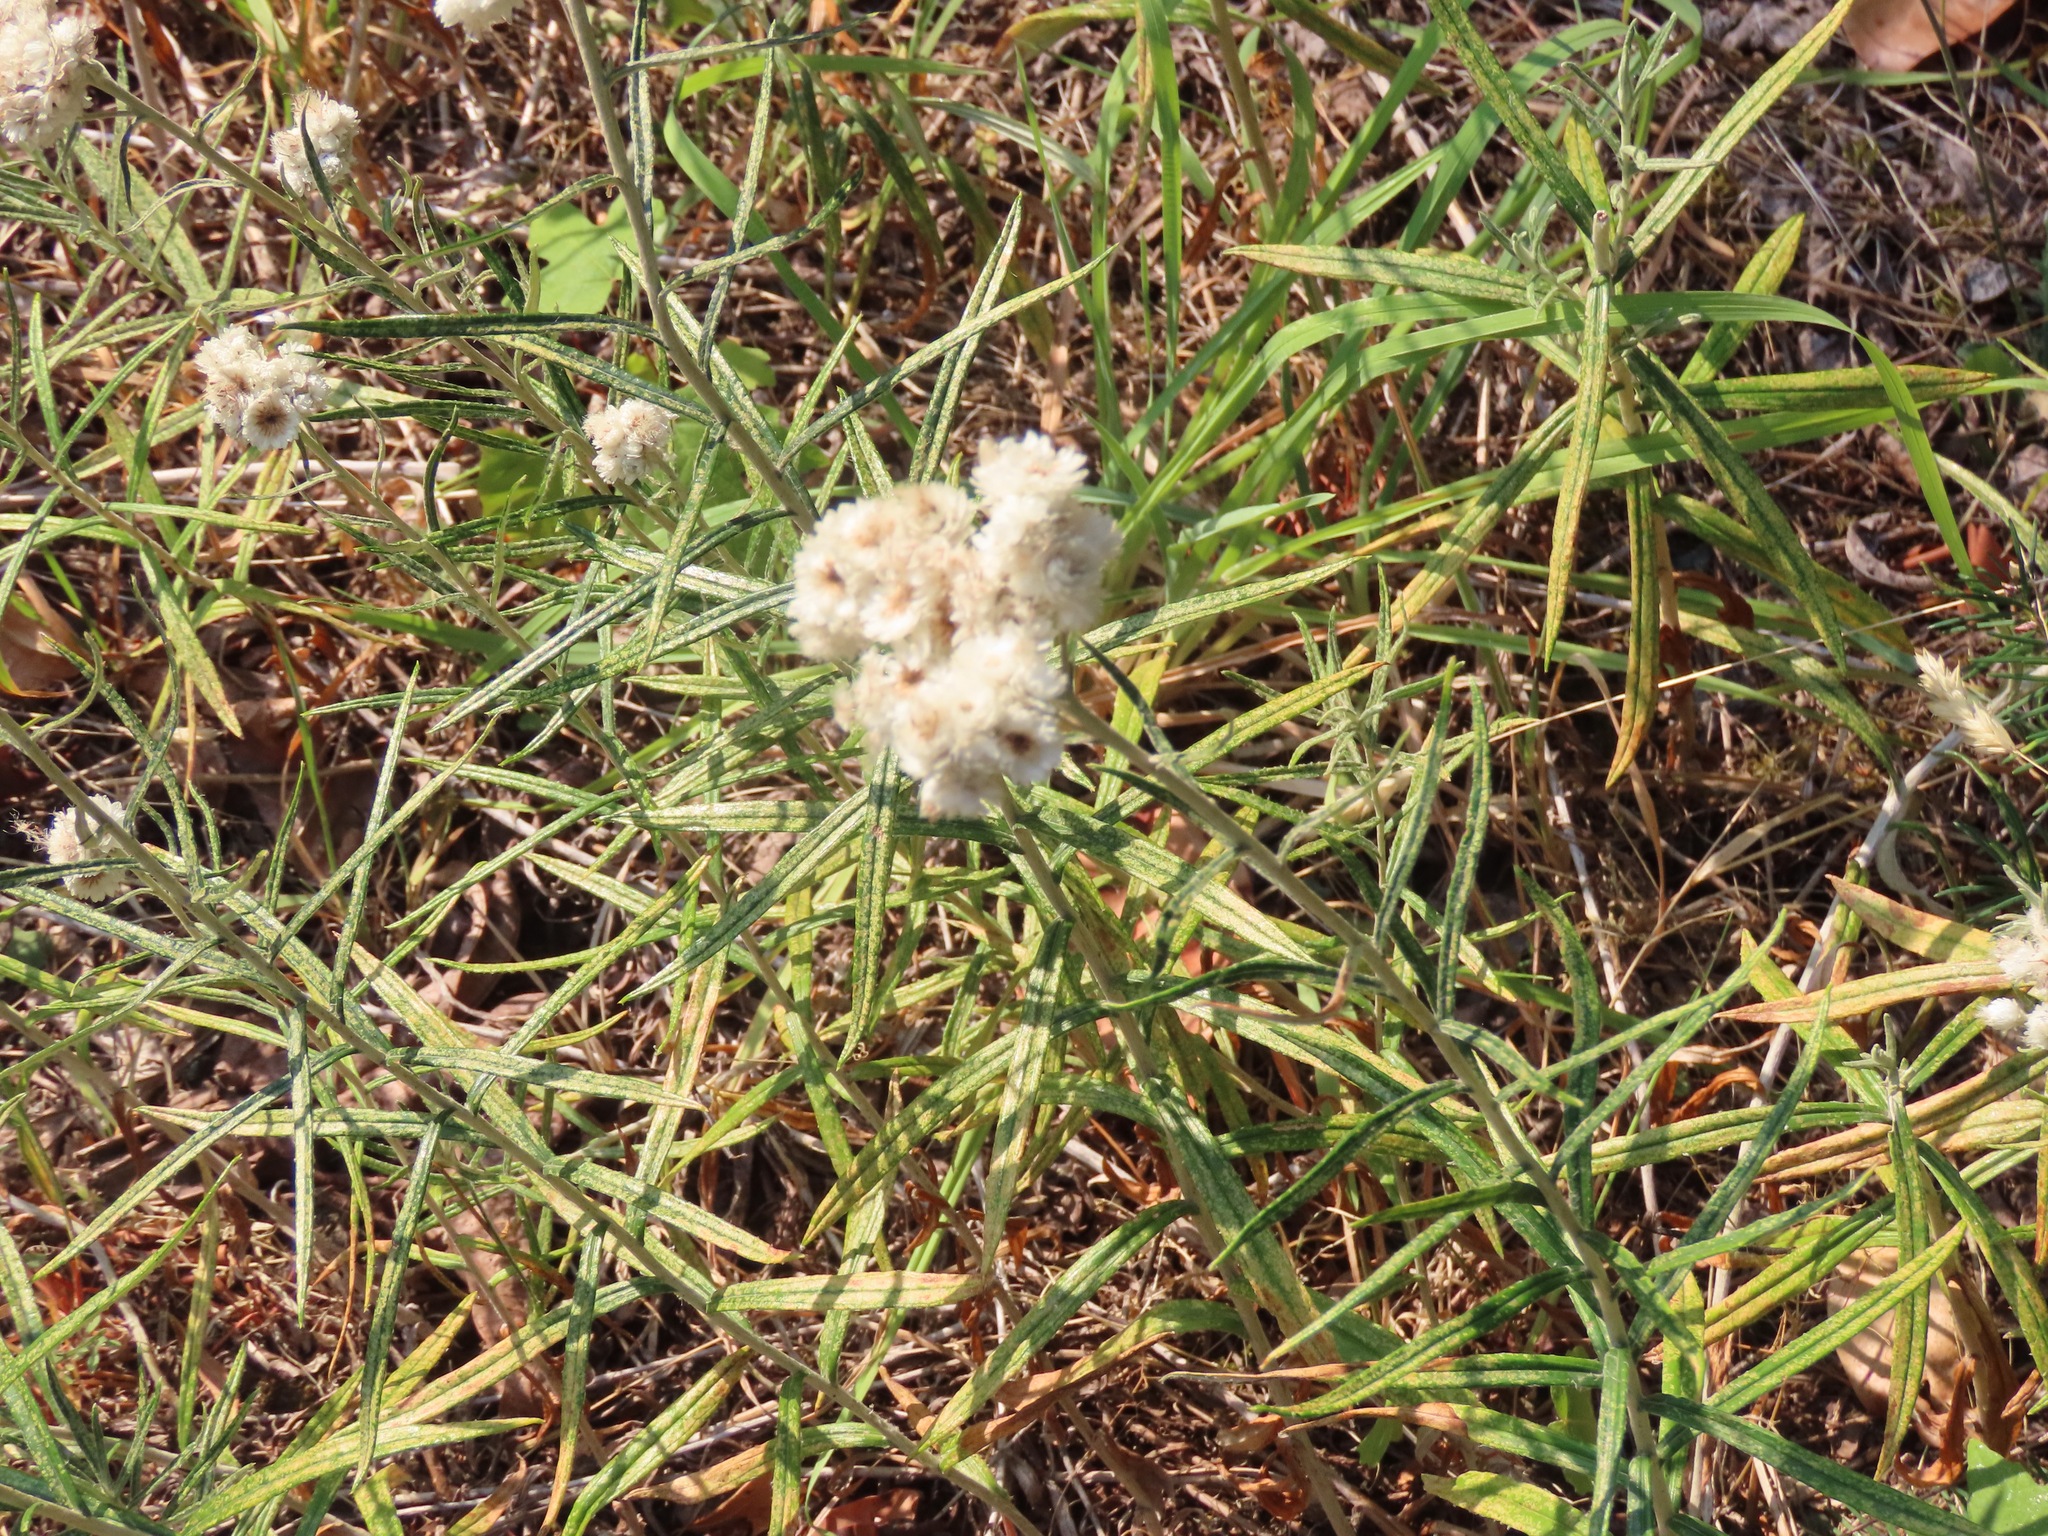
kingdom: Plantae
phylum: Tracheophyta
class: Magnoliopsida
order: Asterales
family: Asteraceae
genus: Anaphalis
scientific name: Anaphalis margaritacea
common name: Pearly everlasting
